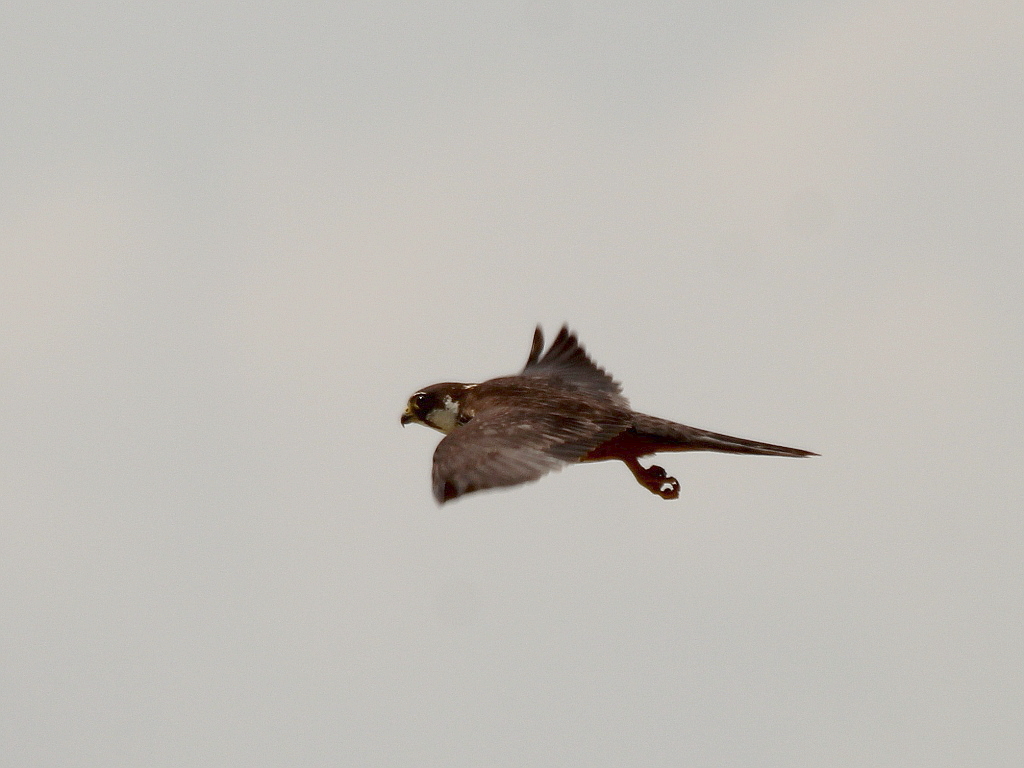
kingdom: Animalia
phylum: Chordata
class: Aves
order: Falconiformes
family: Falconidae
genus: Falco
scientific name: Falco subbuteo
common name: Eurasian hobby
